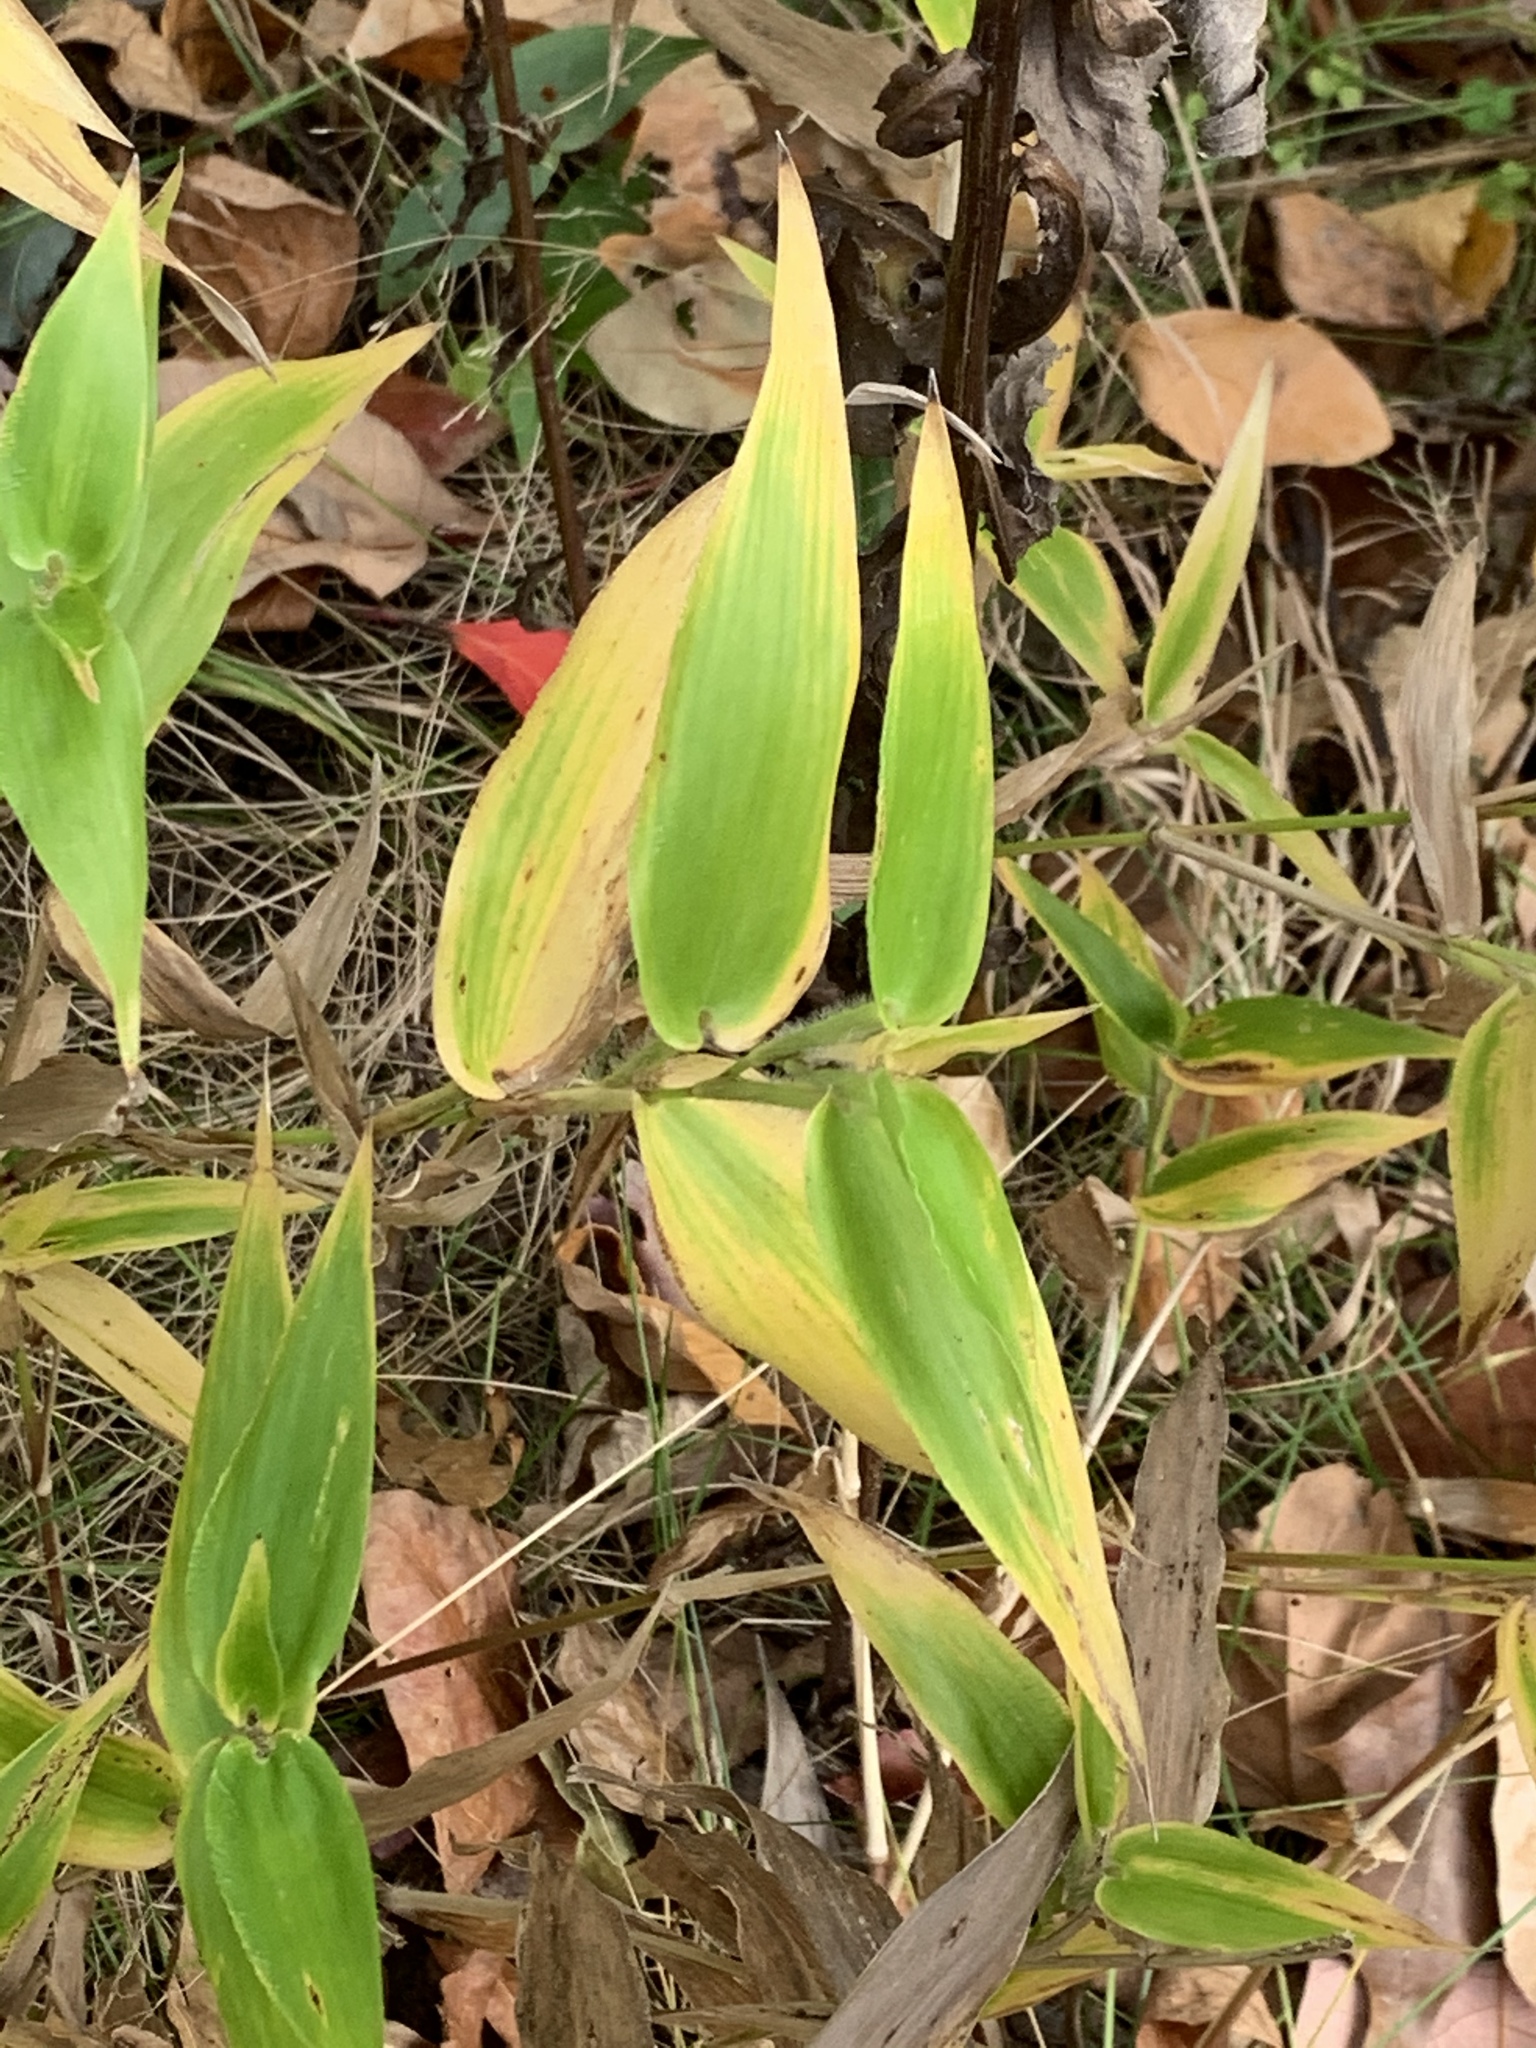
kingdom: Plantae
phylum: Tracheophyta
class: Liliopsida
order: Poales
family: Poaceae
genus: Dichanthelium
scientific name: Dichanthelium clandestinum
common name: Deer-tongue grass
